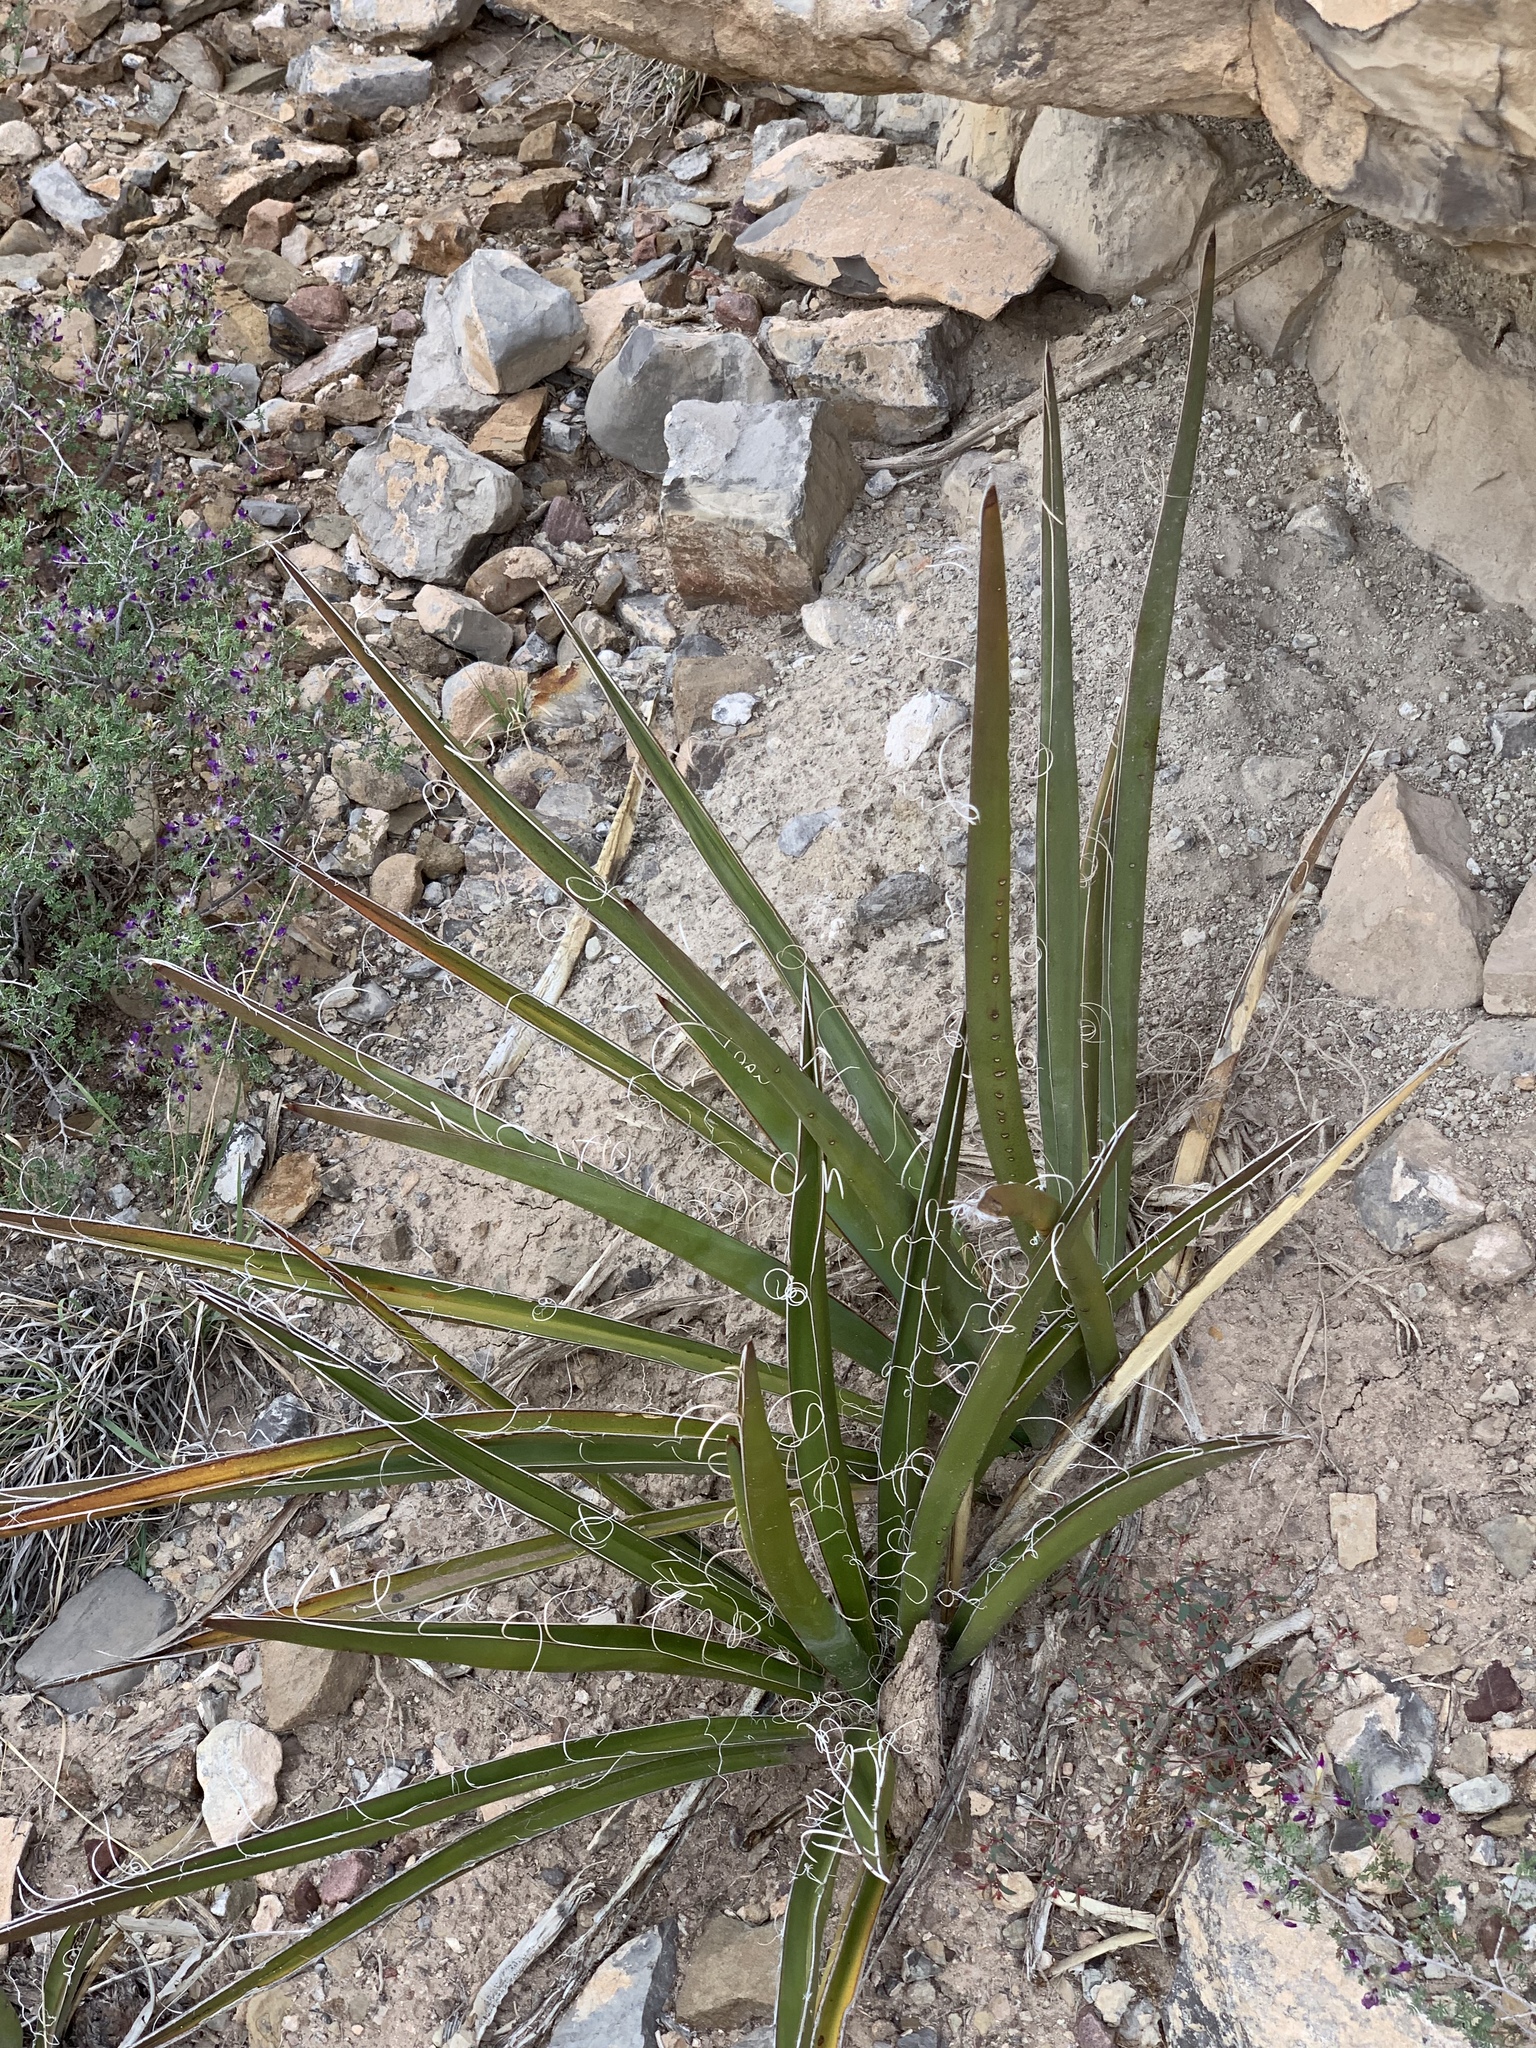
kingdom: Plantae
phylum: Tracheophyta
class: Liliopsida
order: Asparagales
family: Asparagaceae
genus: Yucca
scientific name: Yucca baccata
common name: Banana yucca
